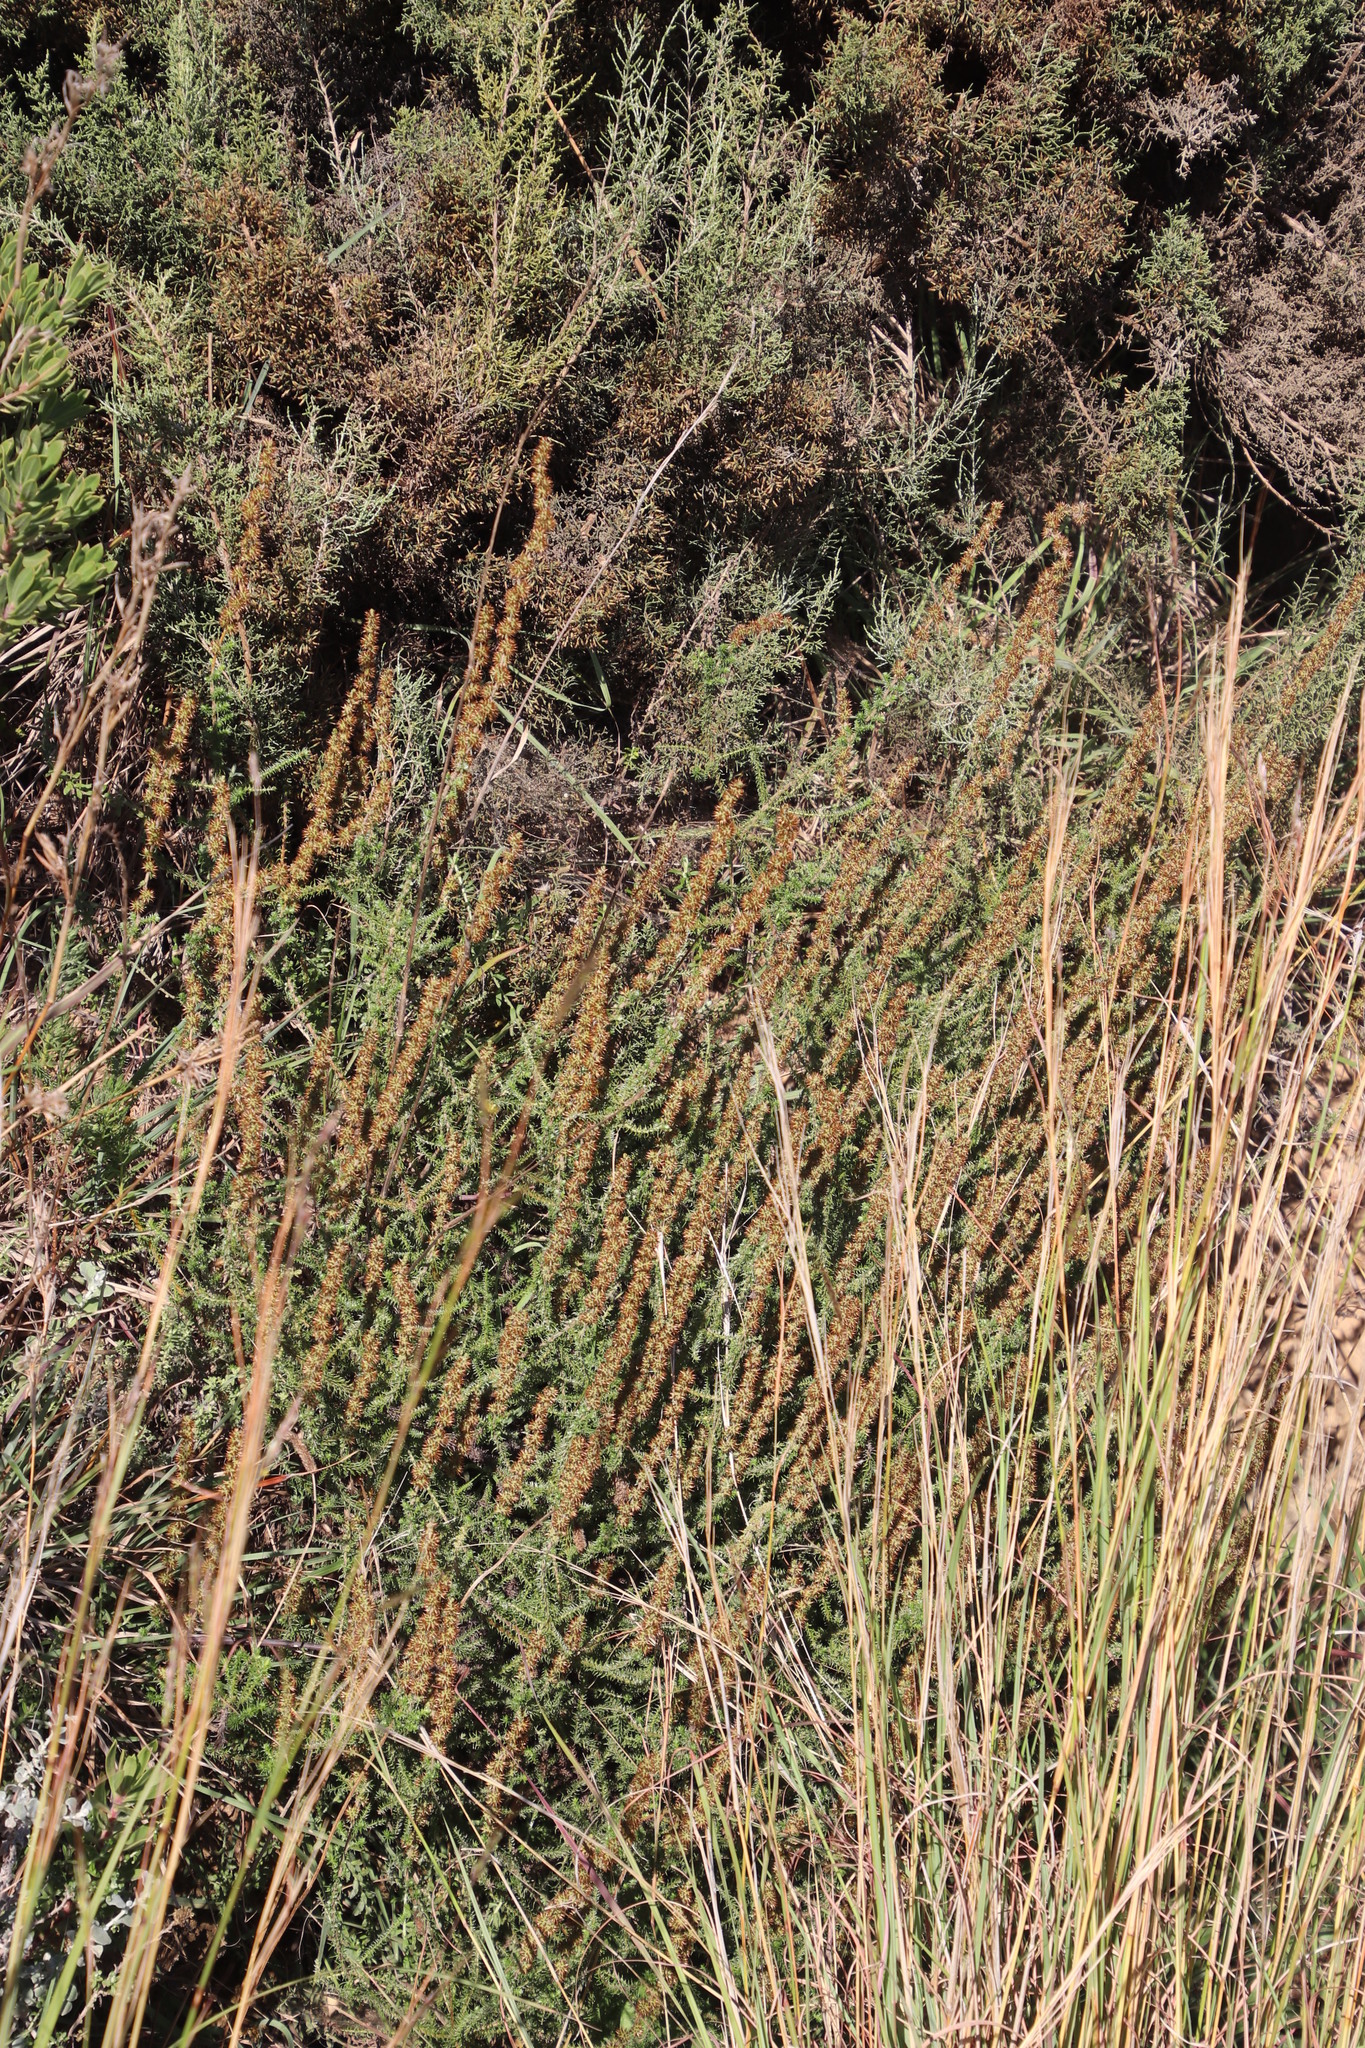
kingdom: Plantae
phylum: Tracheophyta
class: Magnoliopsida
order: Asterales
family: Asteraceae
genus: Seriphium
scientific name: Seriphium cinereum
